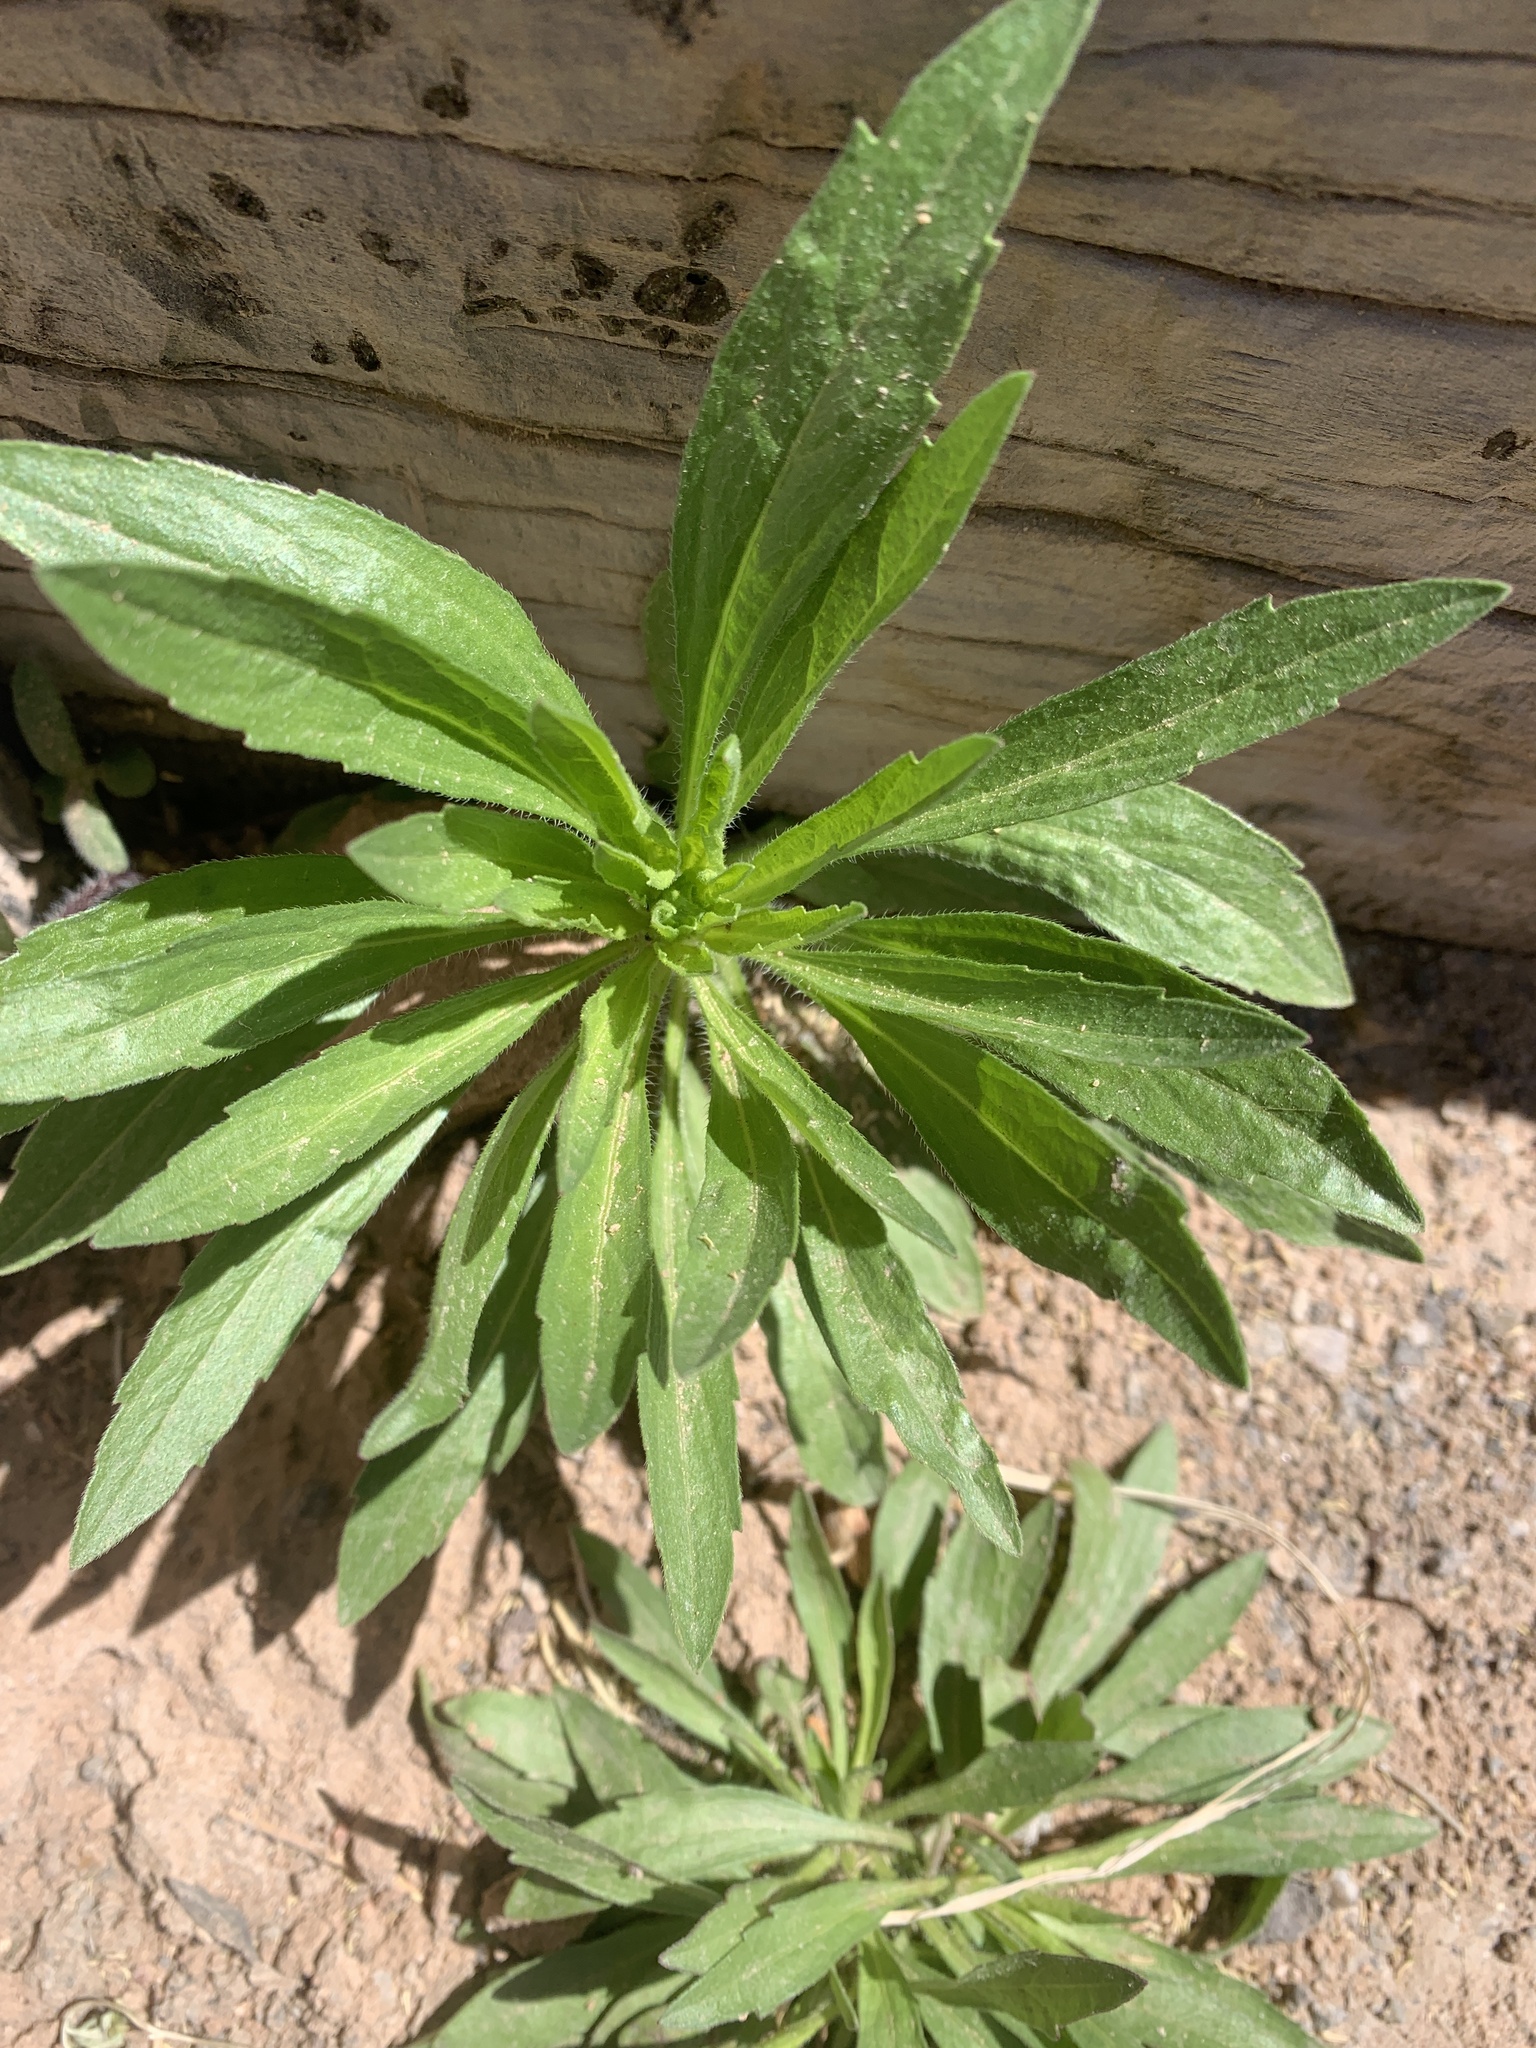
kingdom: Plantae
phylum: Tracheophyta
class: Magnoliopsida
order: Asterales
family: Asteraceae
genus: Erigeron
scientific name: Erigeron canadensis
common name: Canadian fleabane
